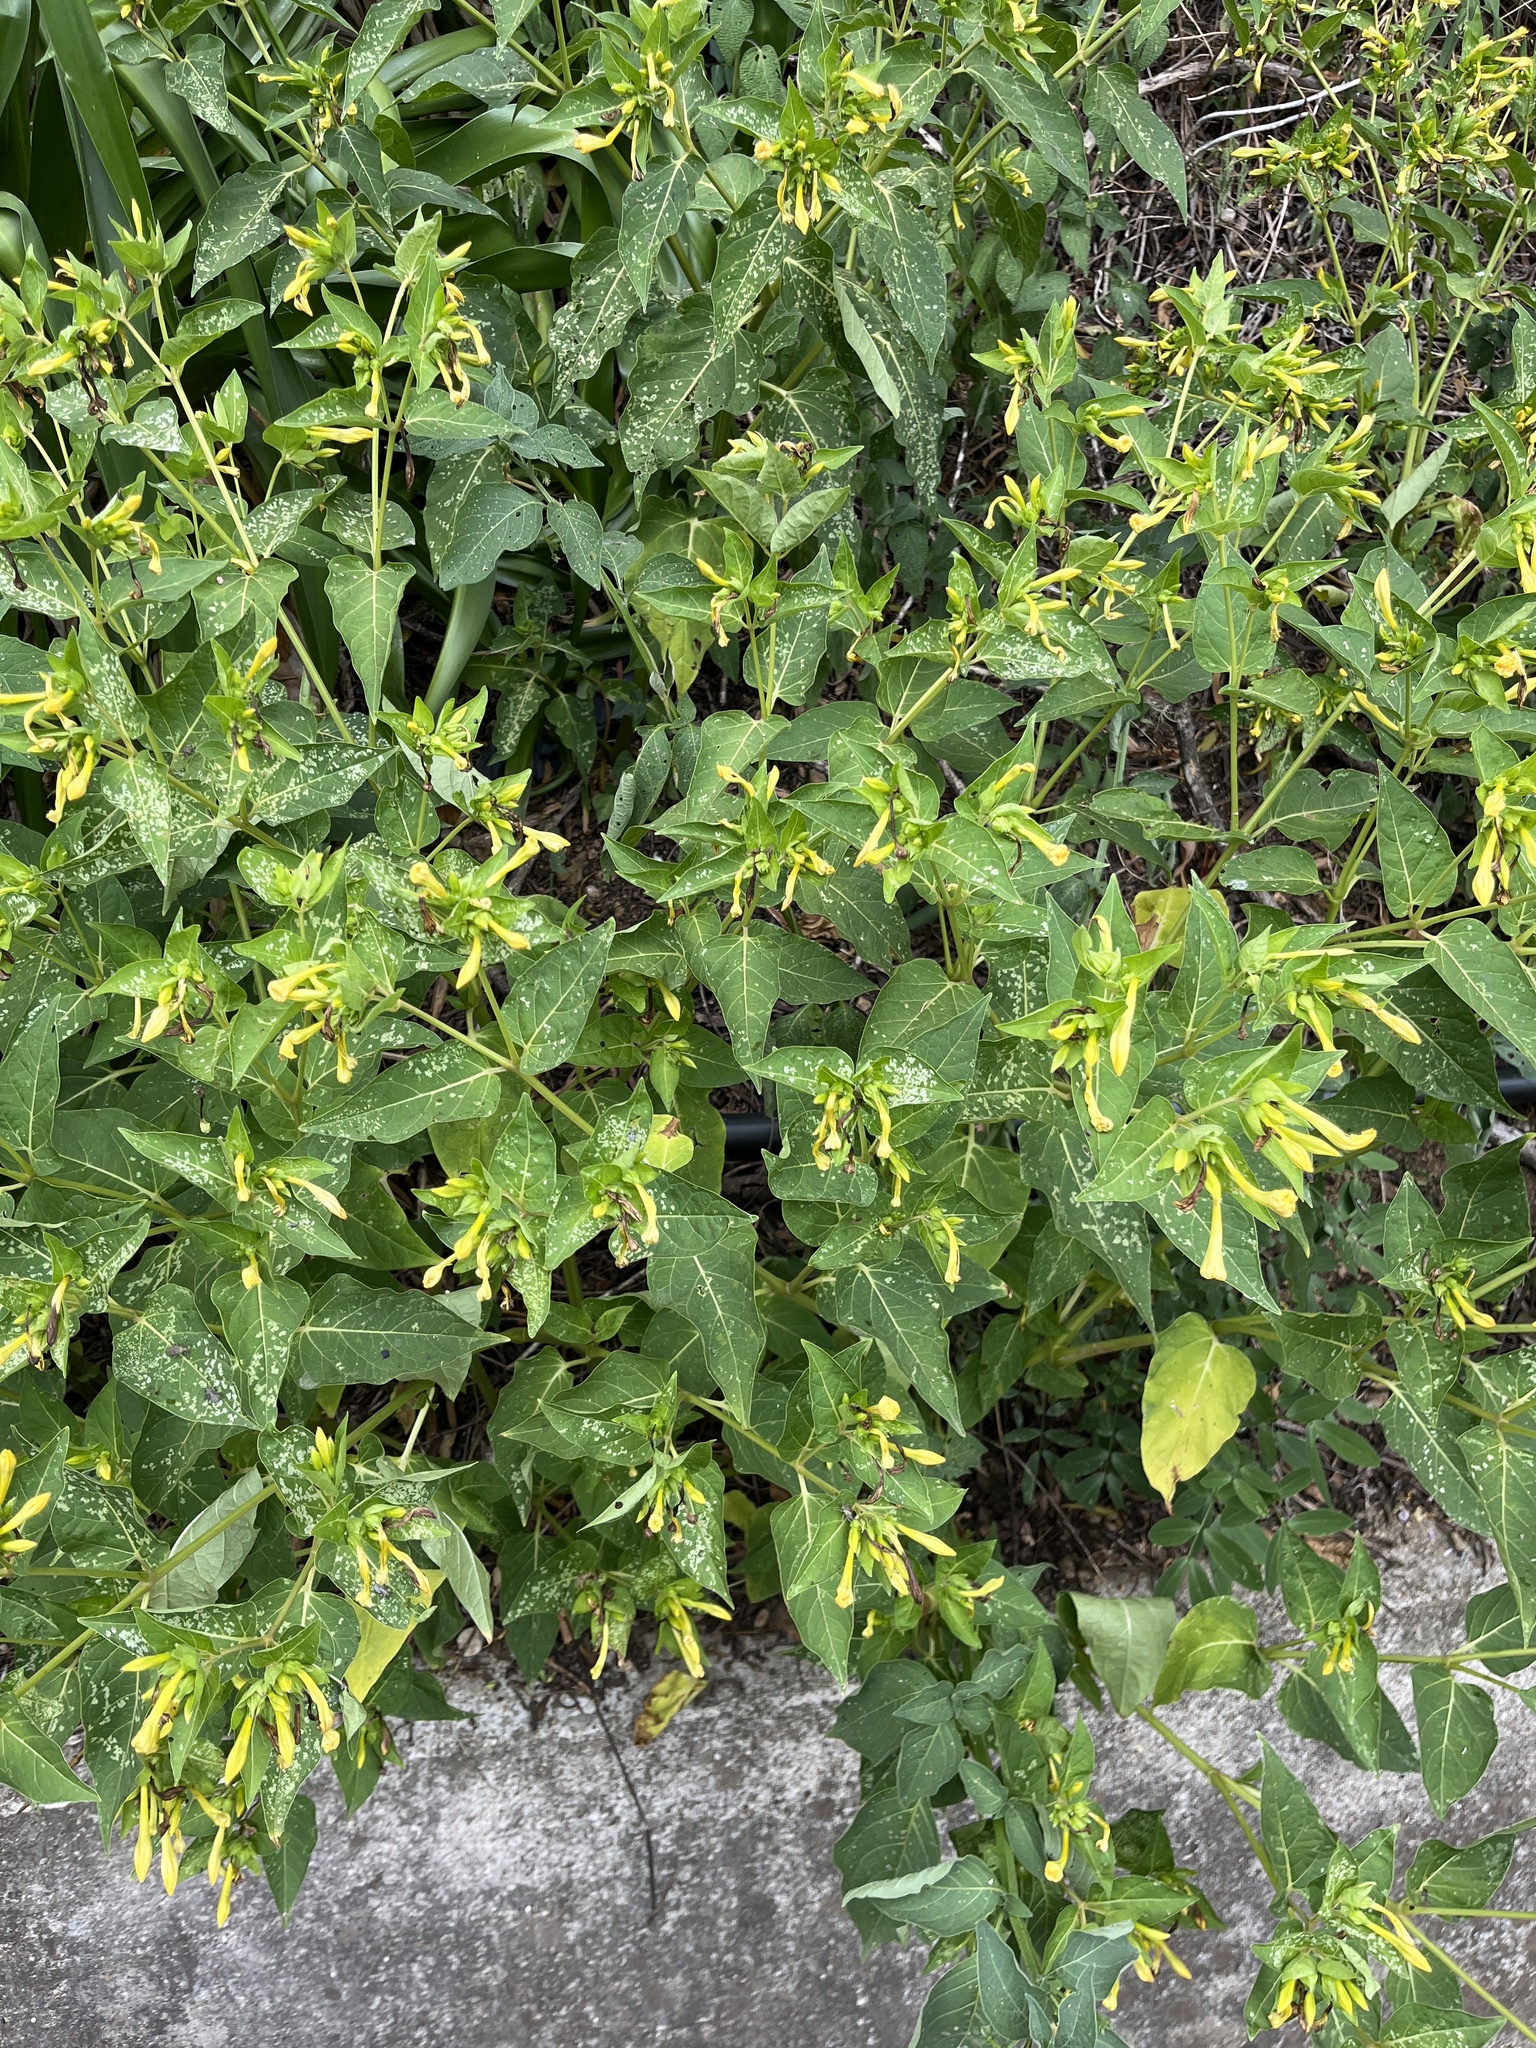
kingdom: Plantae
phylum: Tracheophyta
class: Magnoliopsida
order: Caryophyllales
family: Nyctaginaceae
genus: Mirabilis
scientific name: Mirabilis jalapa
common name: Marvel-of-peru
